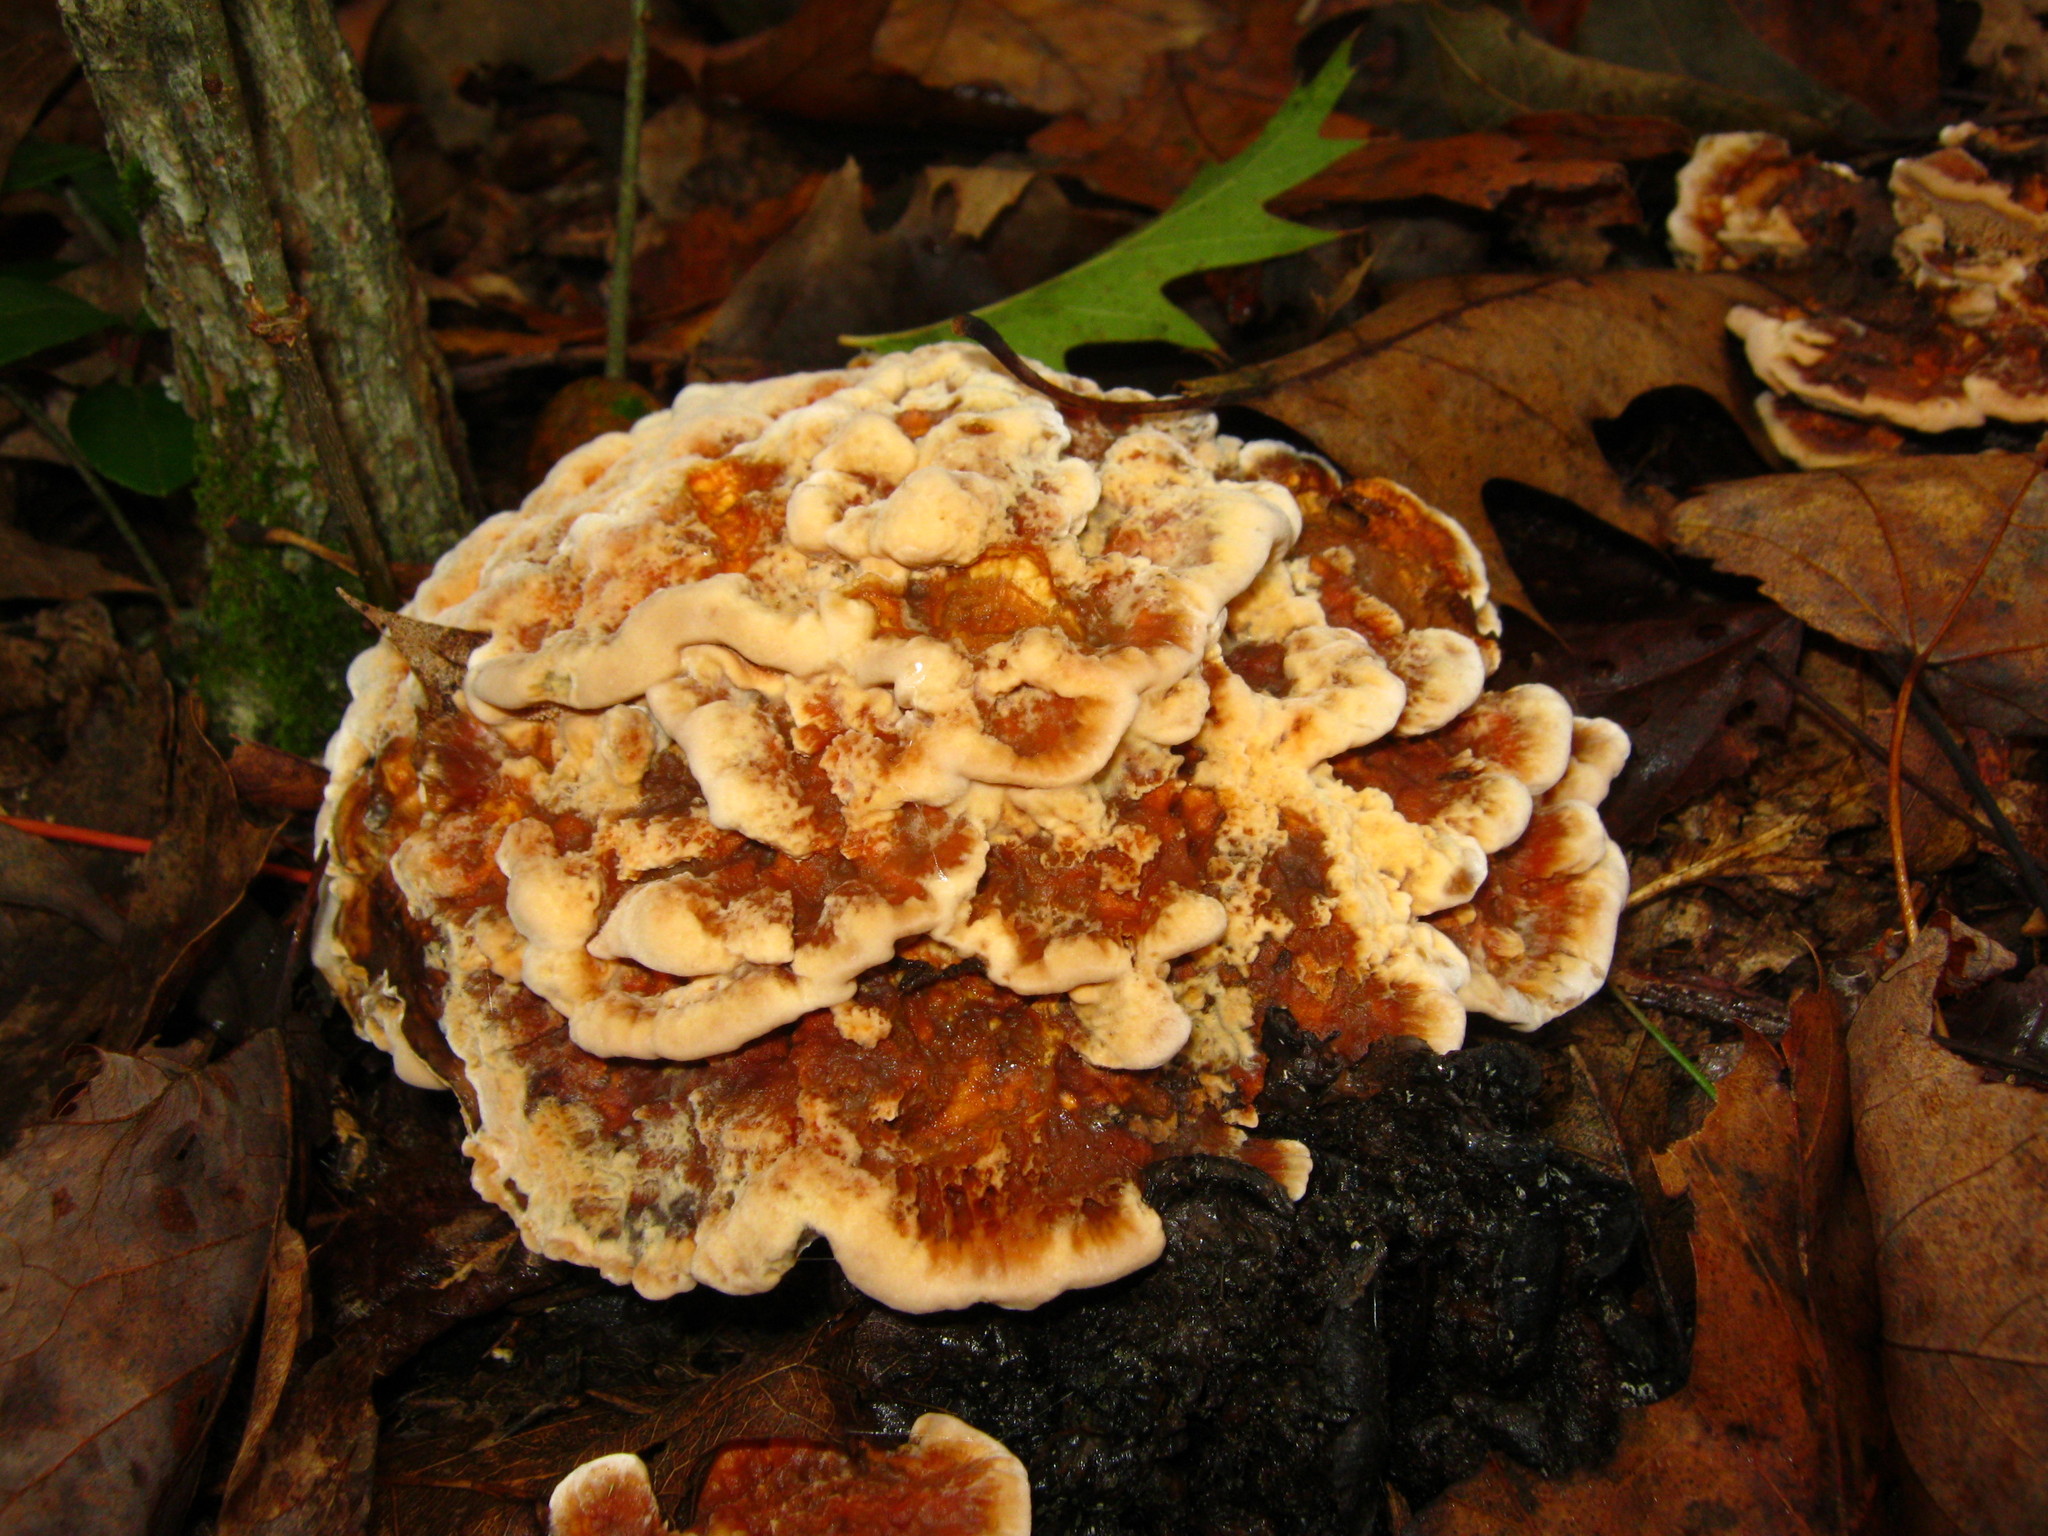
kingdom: Fungi
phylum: Basidiomycota
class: Agaricomycetes
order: Thelephorales
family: Bankeraceae
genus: Hydnellum
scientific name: Hydnellum aurantiacum
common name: Orange tooth
